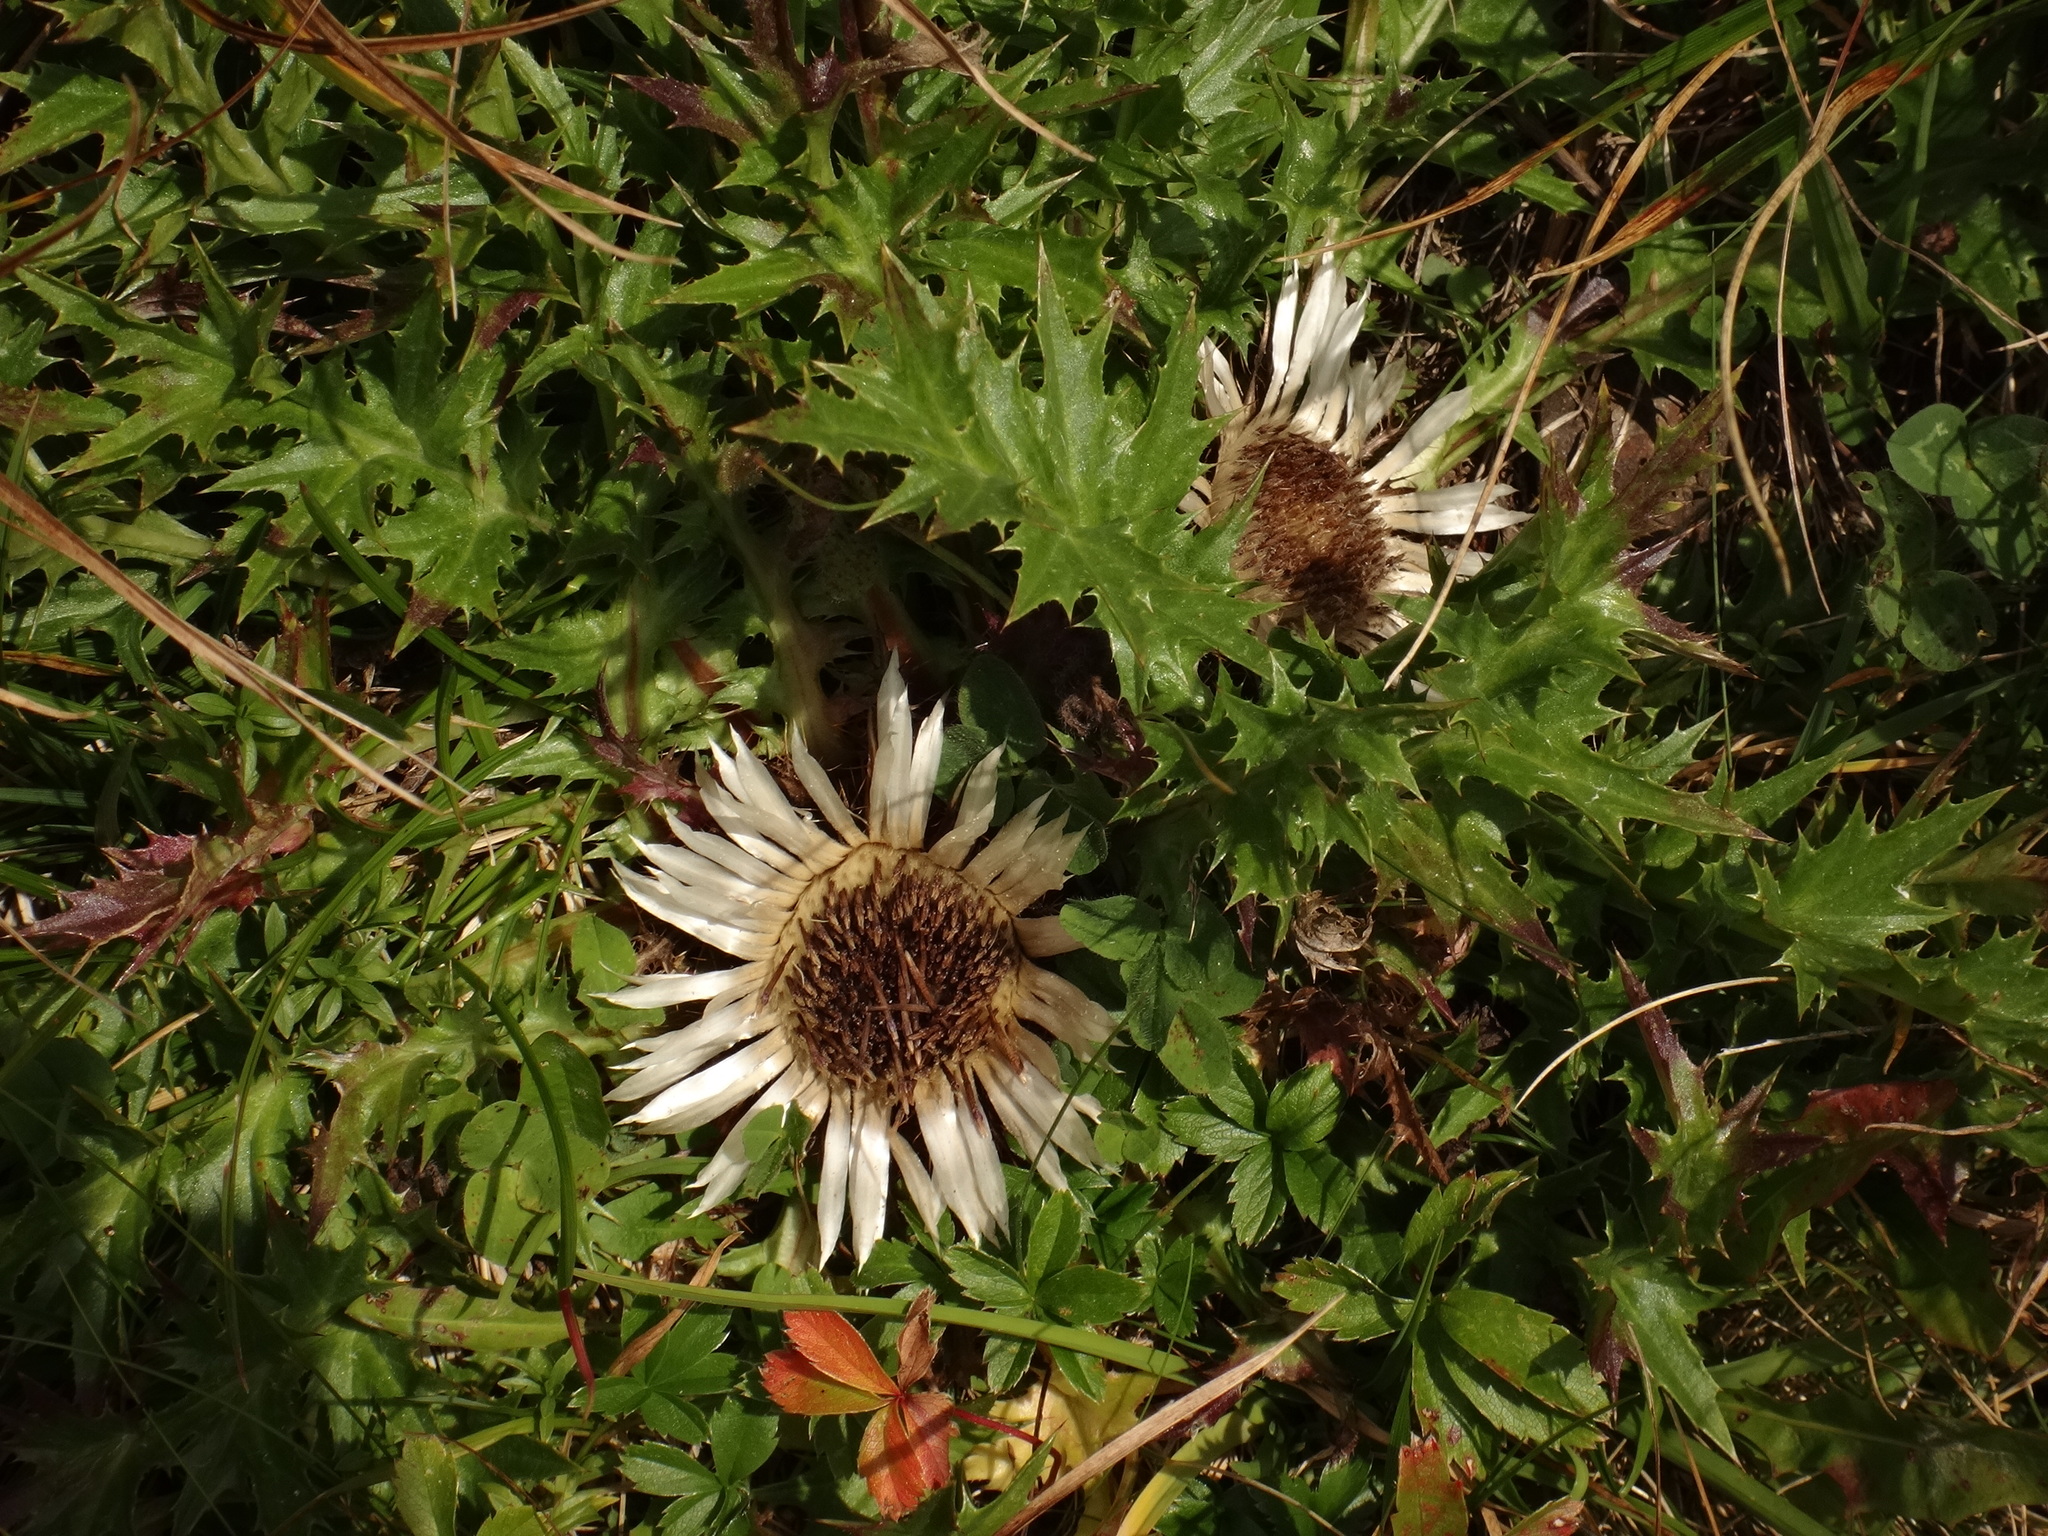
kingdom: Plantae
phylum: Tracheophyta
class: Magnoliopsida
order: Asterales
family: Asteraceae
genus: Carlina
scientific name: Carlina acaulis
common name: Stemless carline thistle
